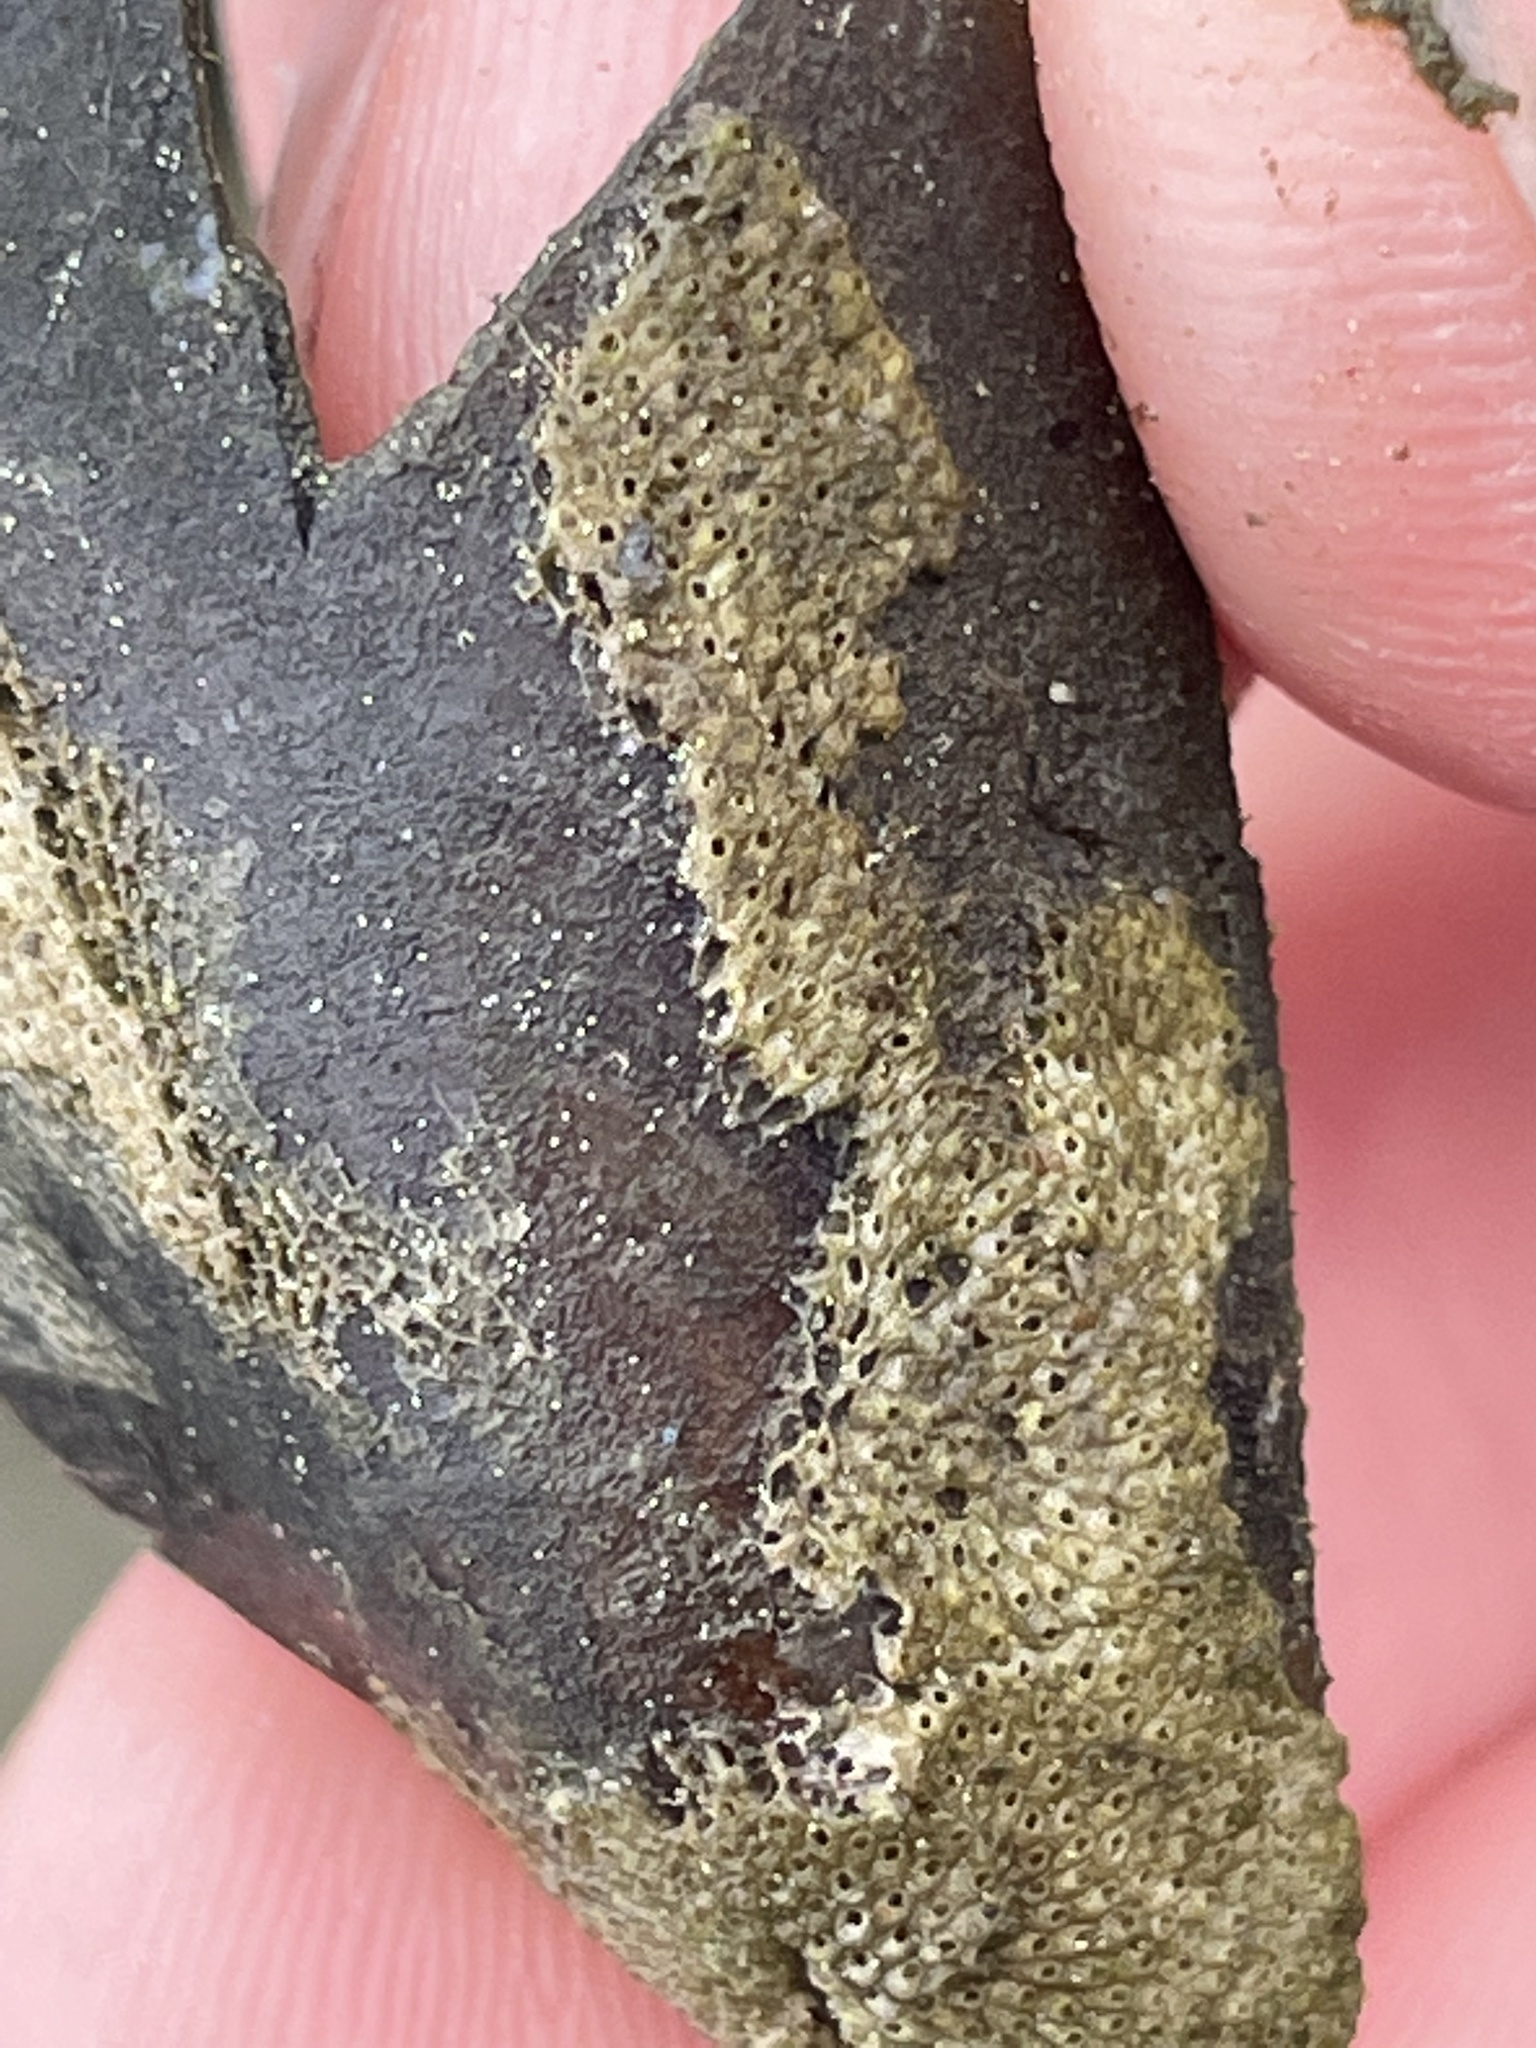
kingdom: Animalia
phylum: Bryozoa
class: Gymnolaemata
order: Cheilostomatida
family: Cryptosulidae
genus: Cryptosula
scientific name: Cryptosula pallasiana
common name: Red crust
